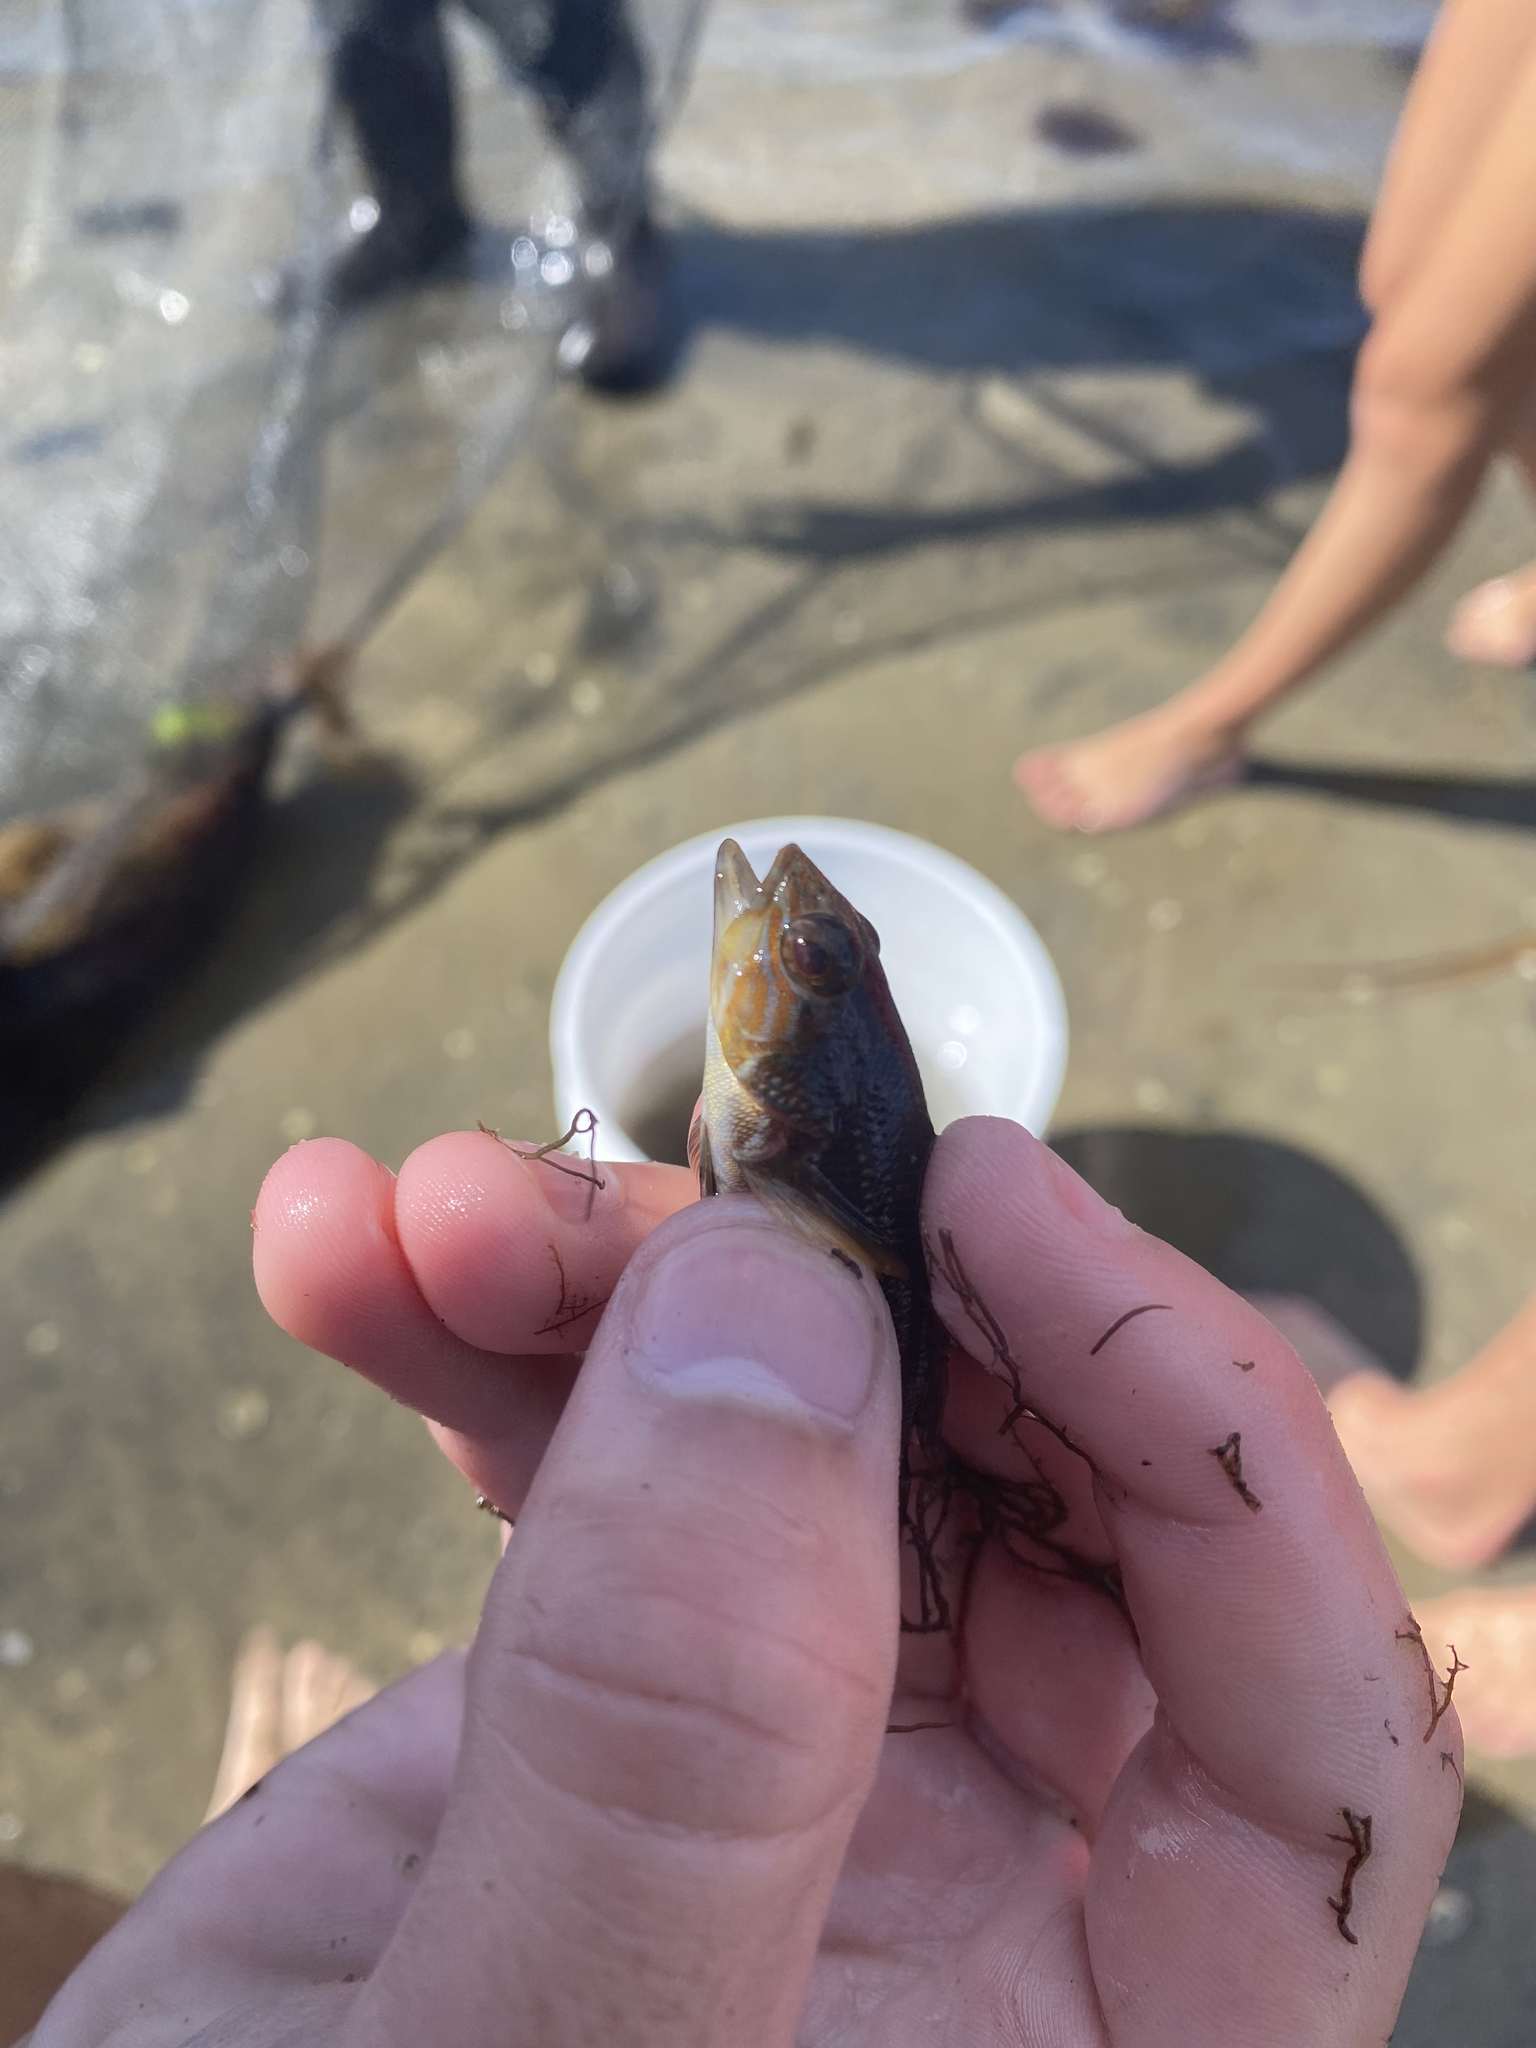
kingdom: Animalia
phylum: Chordata
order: Perciformes
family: Serranidae
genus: Centropristis
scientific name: Centropristis striata
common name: Black sea bass
